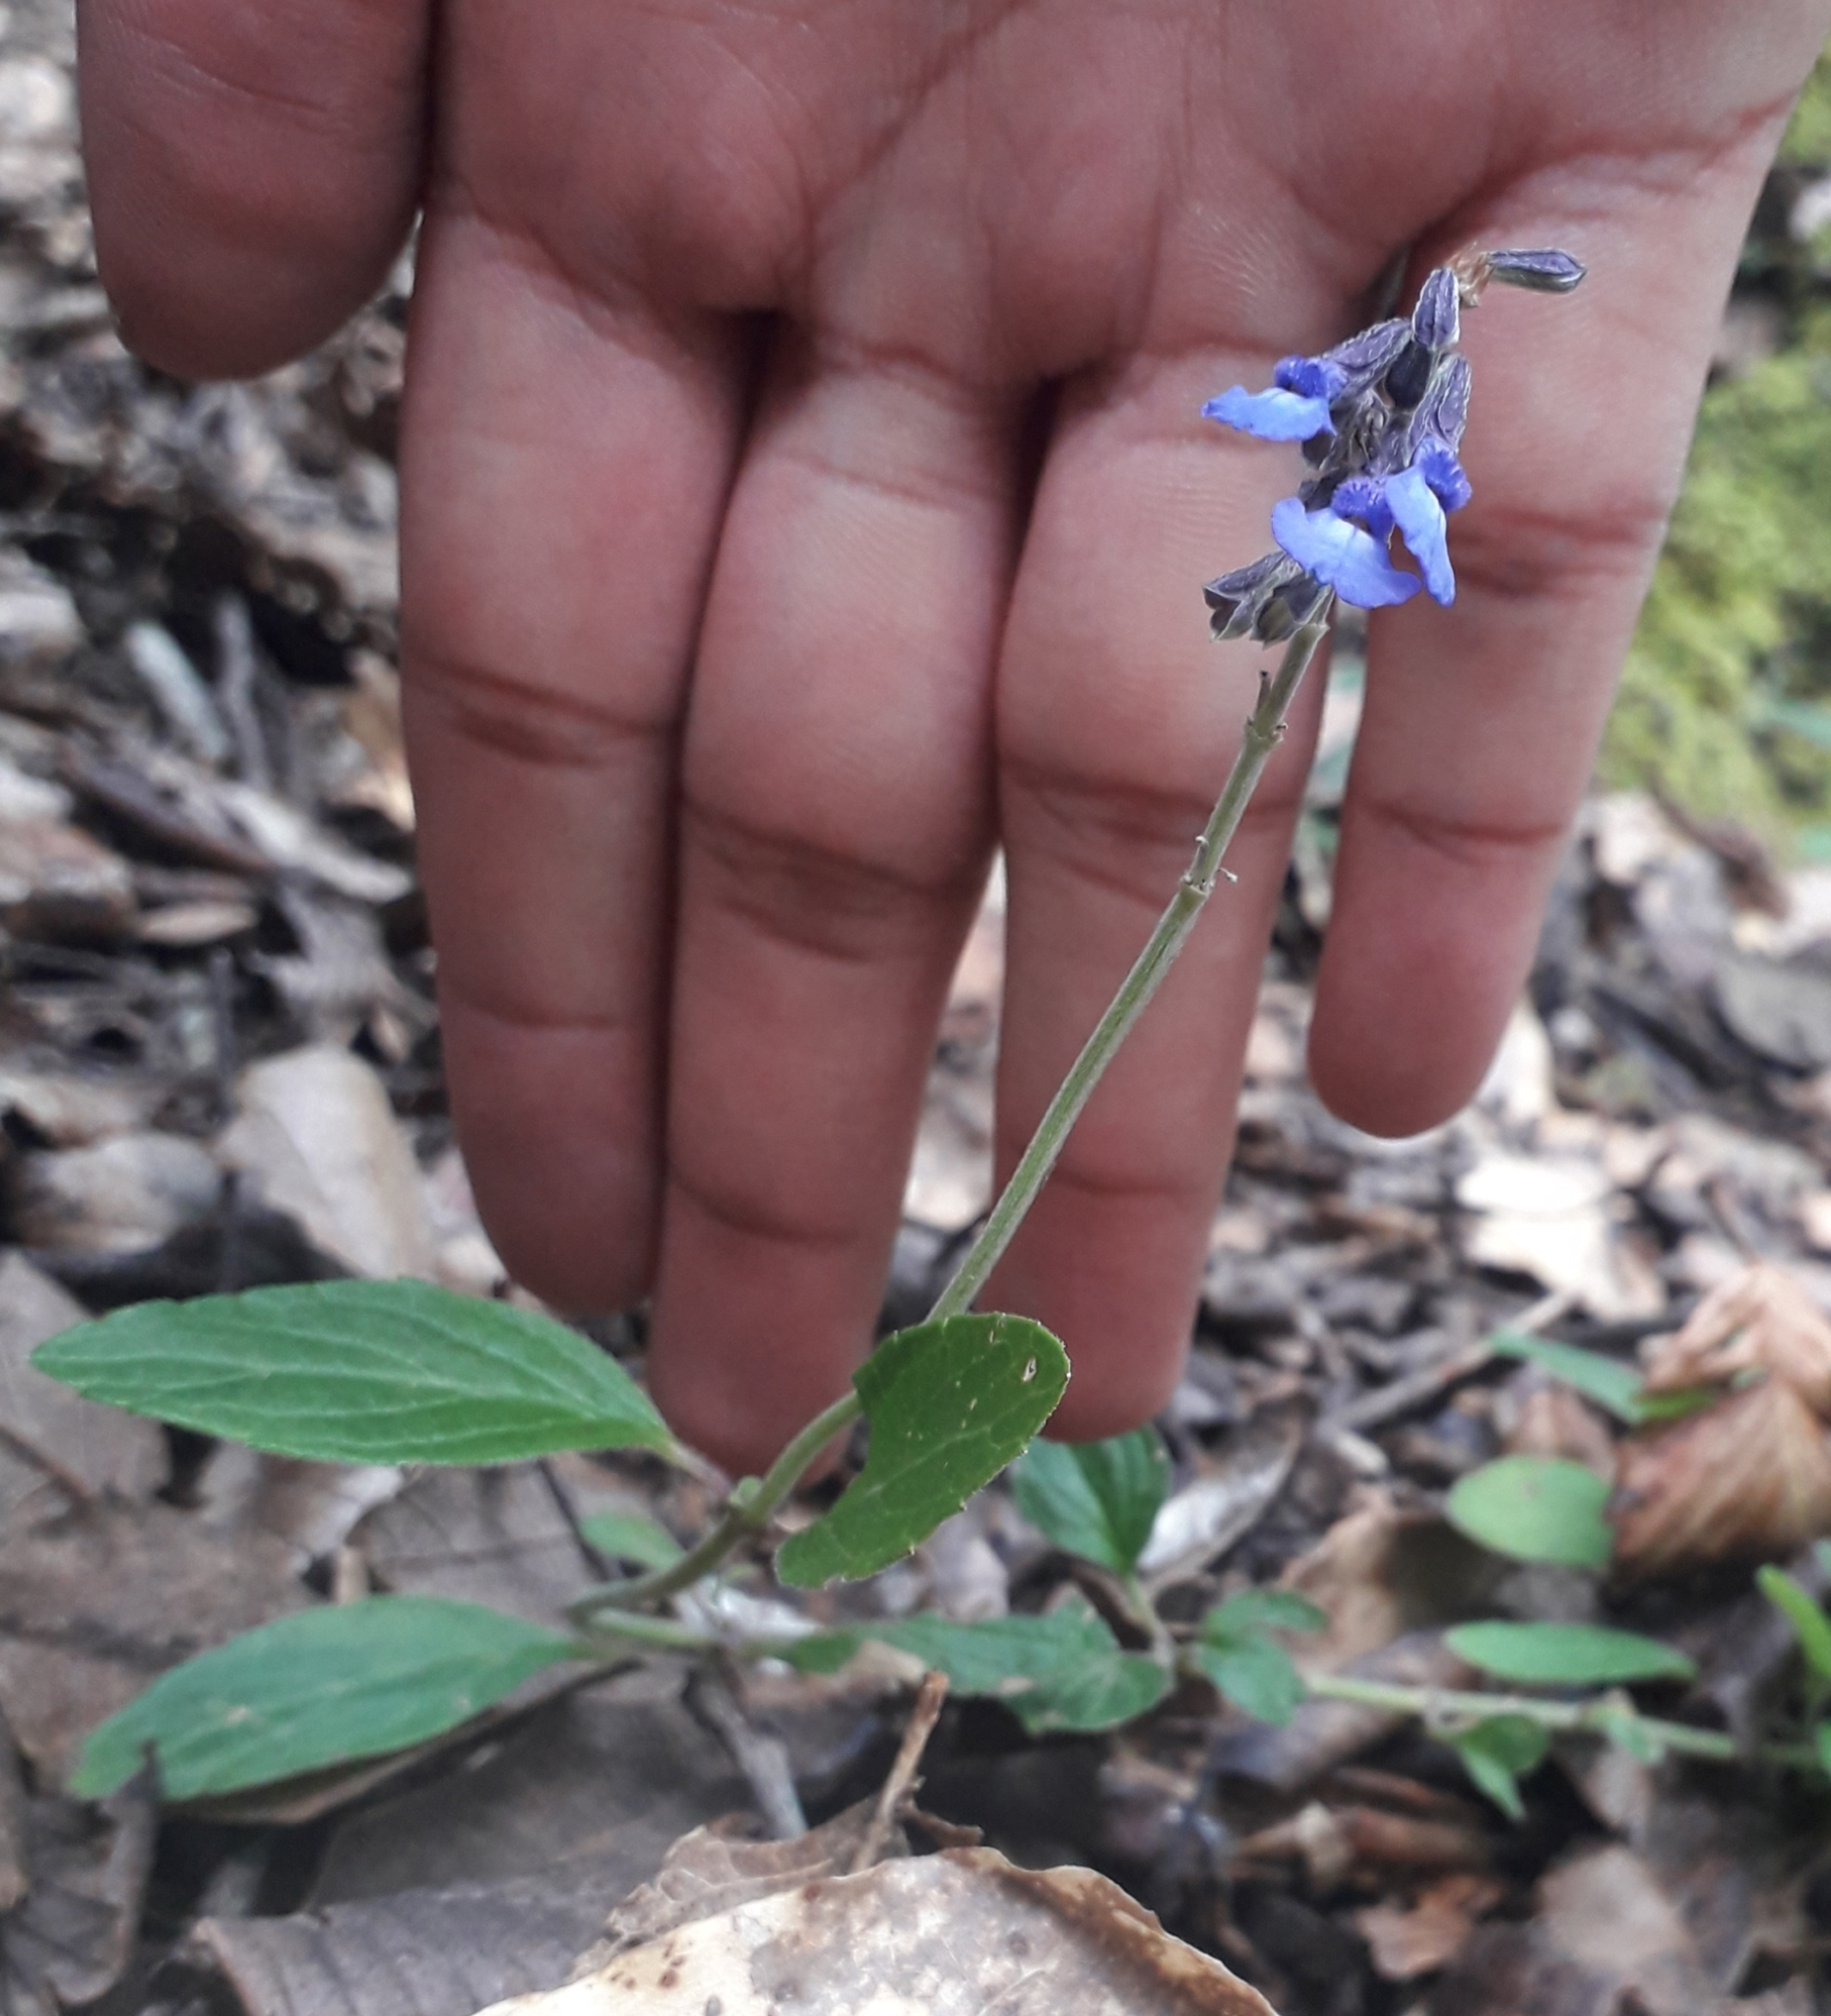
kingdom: Plantae
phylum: Tracheophyta
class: Magnoliopsida
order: Lamiales
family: Lamiaceae
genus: Salvia
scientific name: Salvia helianthemifolia
